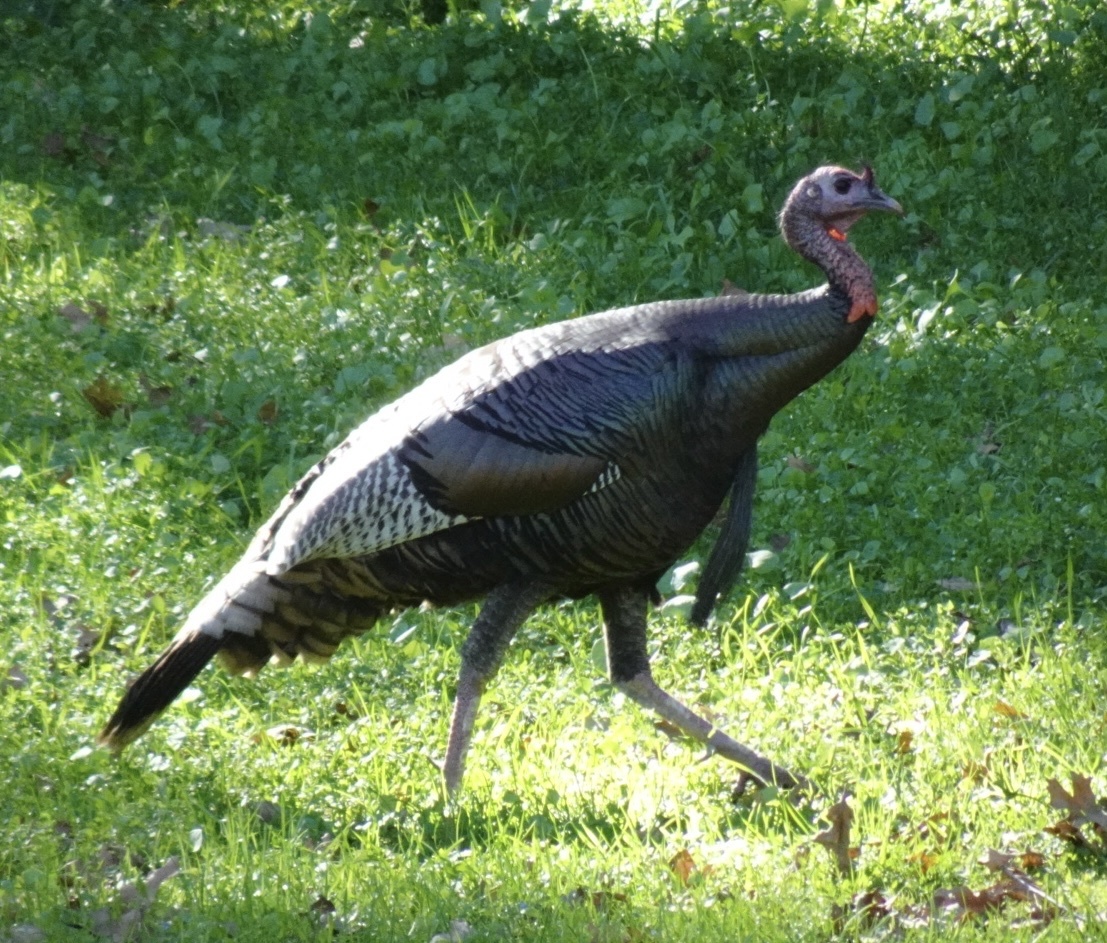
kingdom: Animalia
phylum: Chordata
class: Aves
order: Galliformes
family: Phasianidae
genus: Meleagris
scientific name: Meleagris gallopavo
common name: Wild turkey
